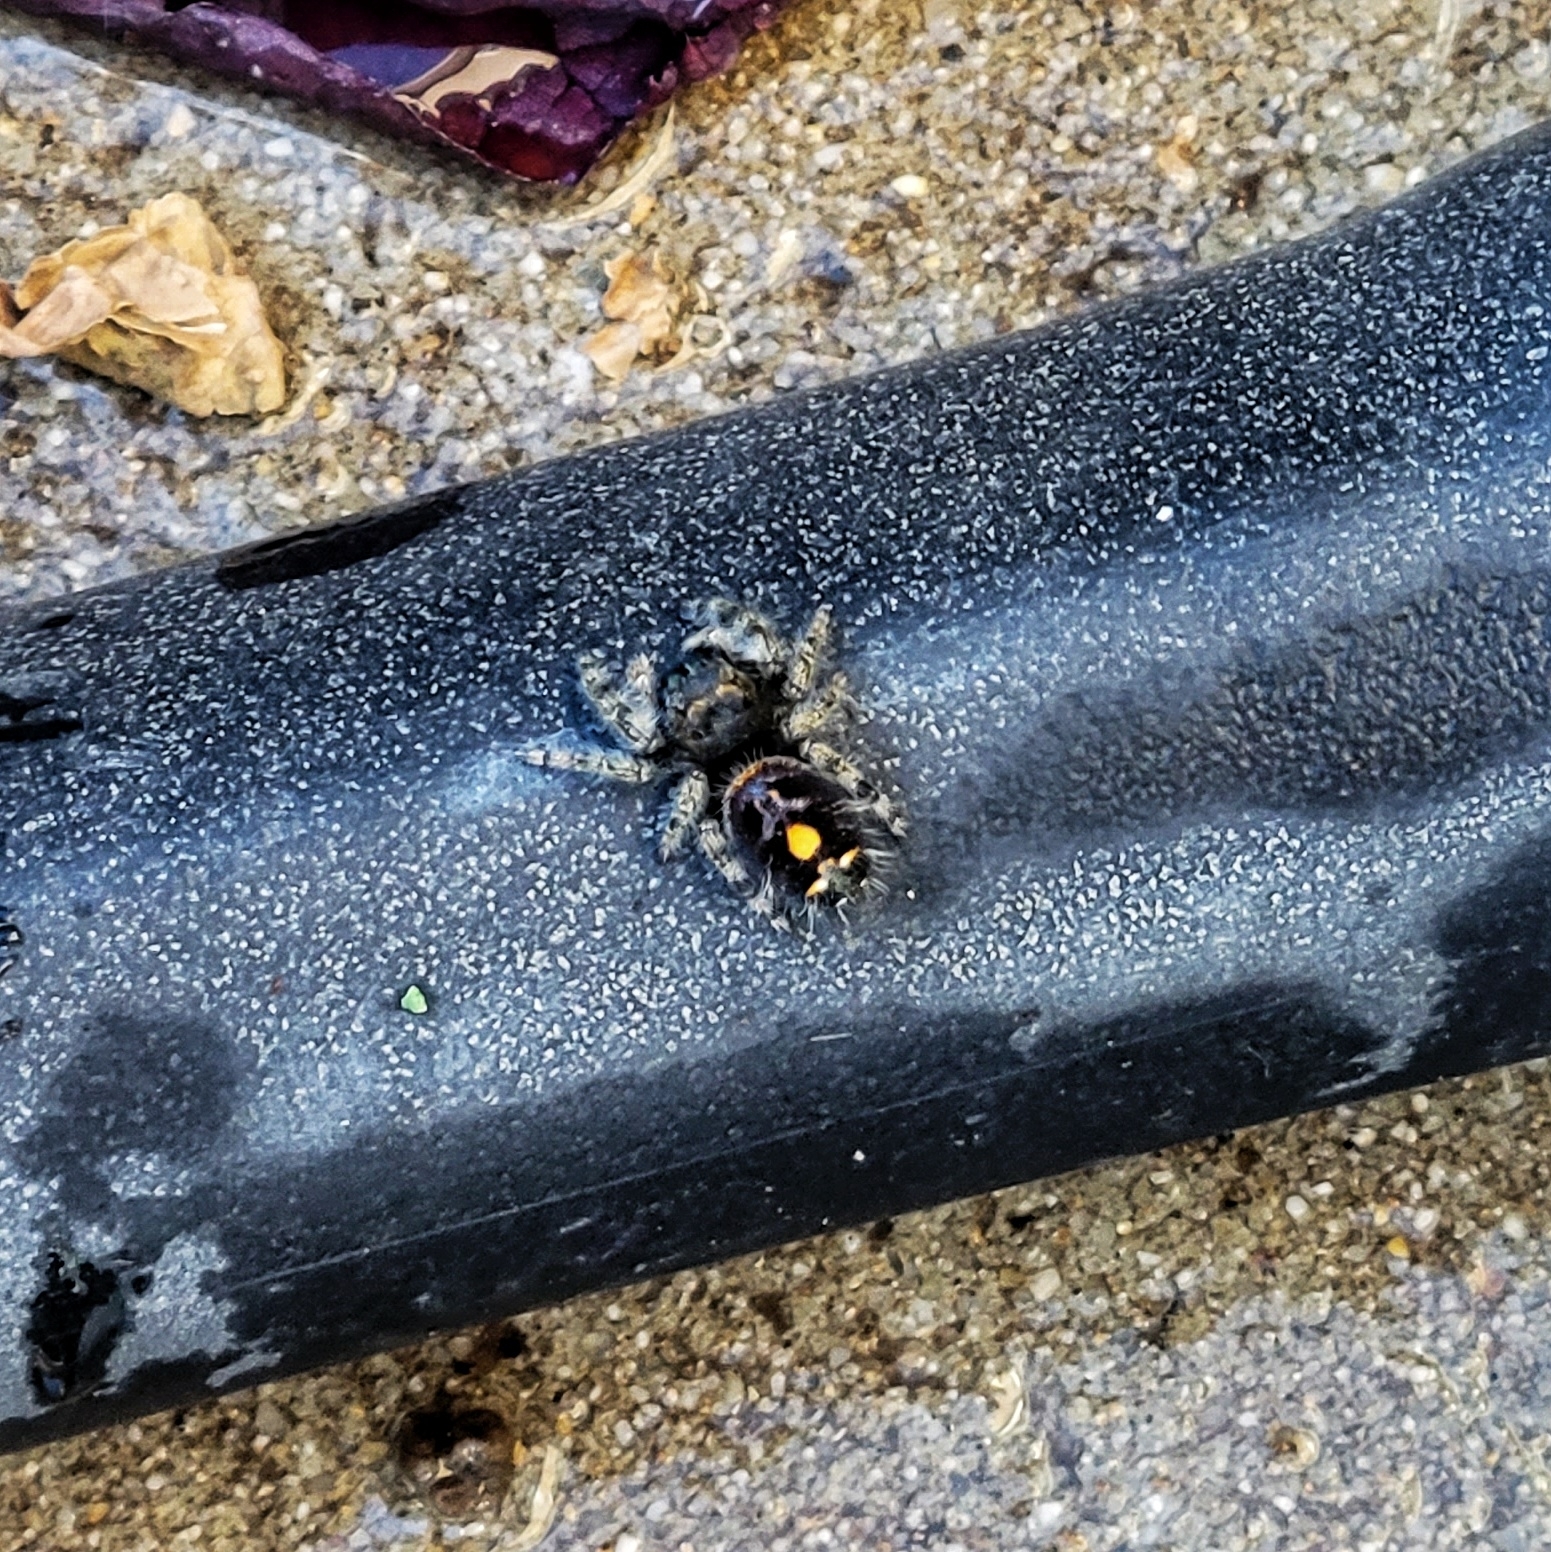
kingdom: Animalia
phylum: Arthropoda
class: Arachnida
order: Araneae
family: Salticidae
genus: Phidippus
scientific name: Phidippus audax
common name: Bold jumper
